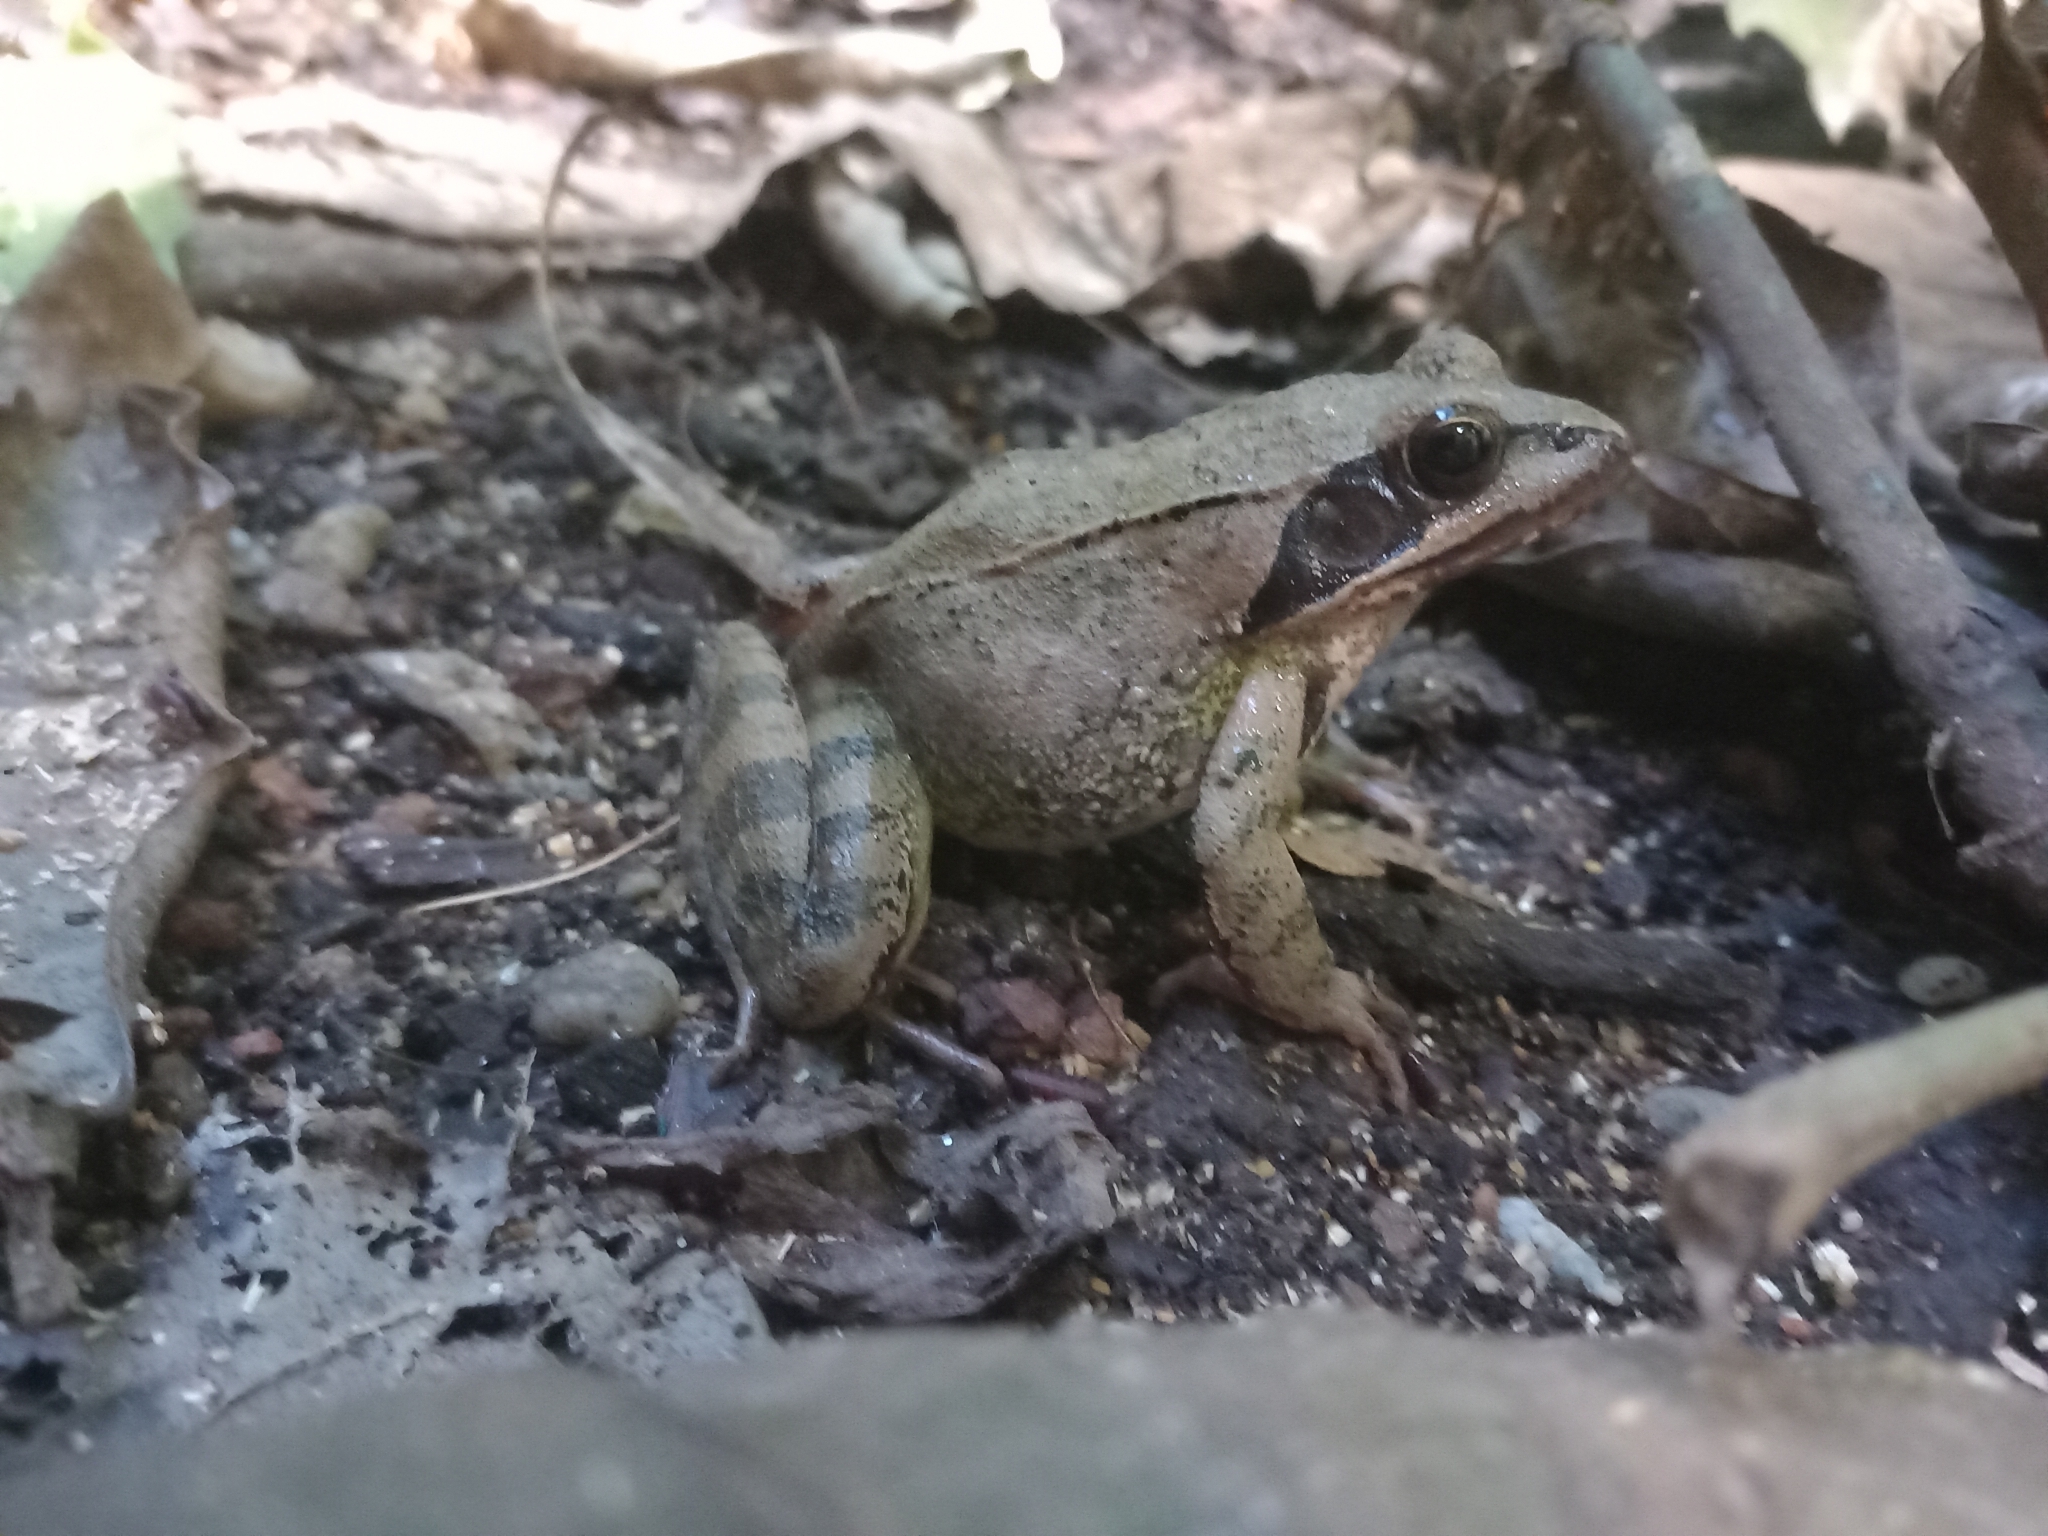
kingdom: Animalia
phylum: Chordata
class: Amphibia
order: Anura
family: Ranidae
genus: Rana
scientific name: Rana dalmatina
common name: Agile frog
